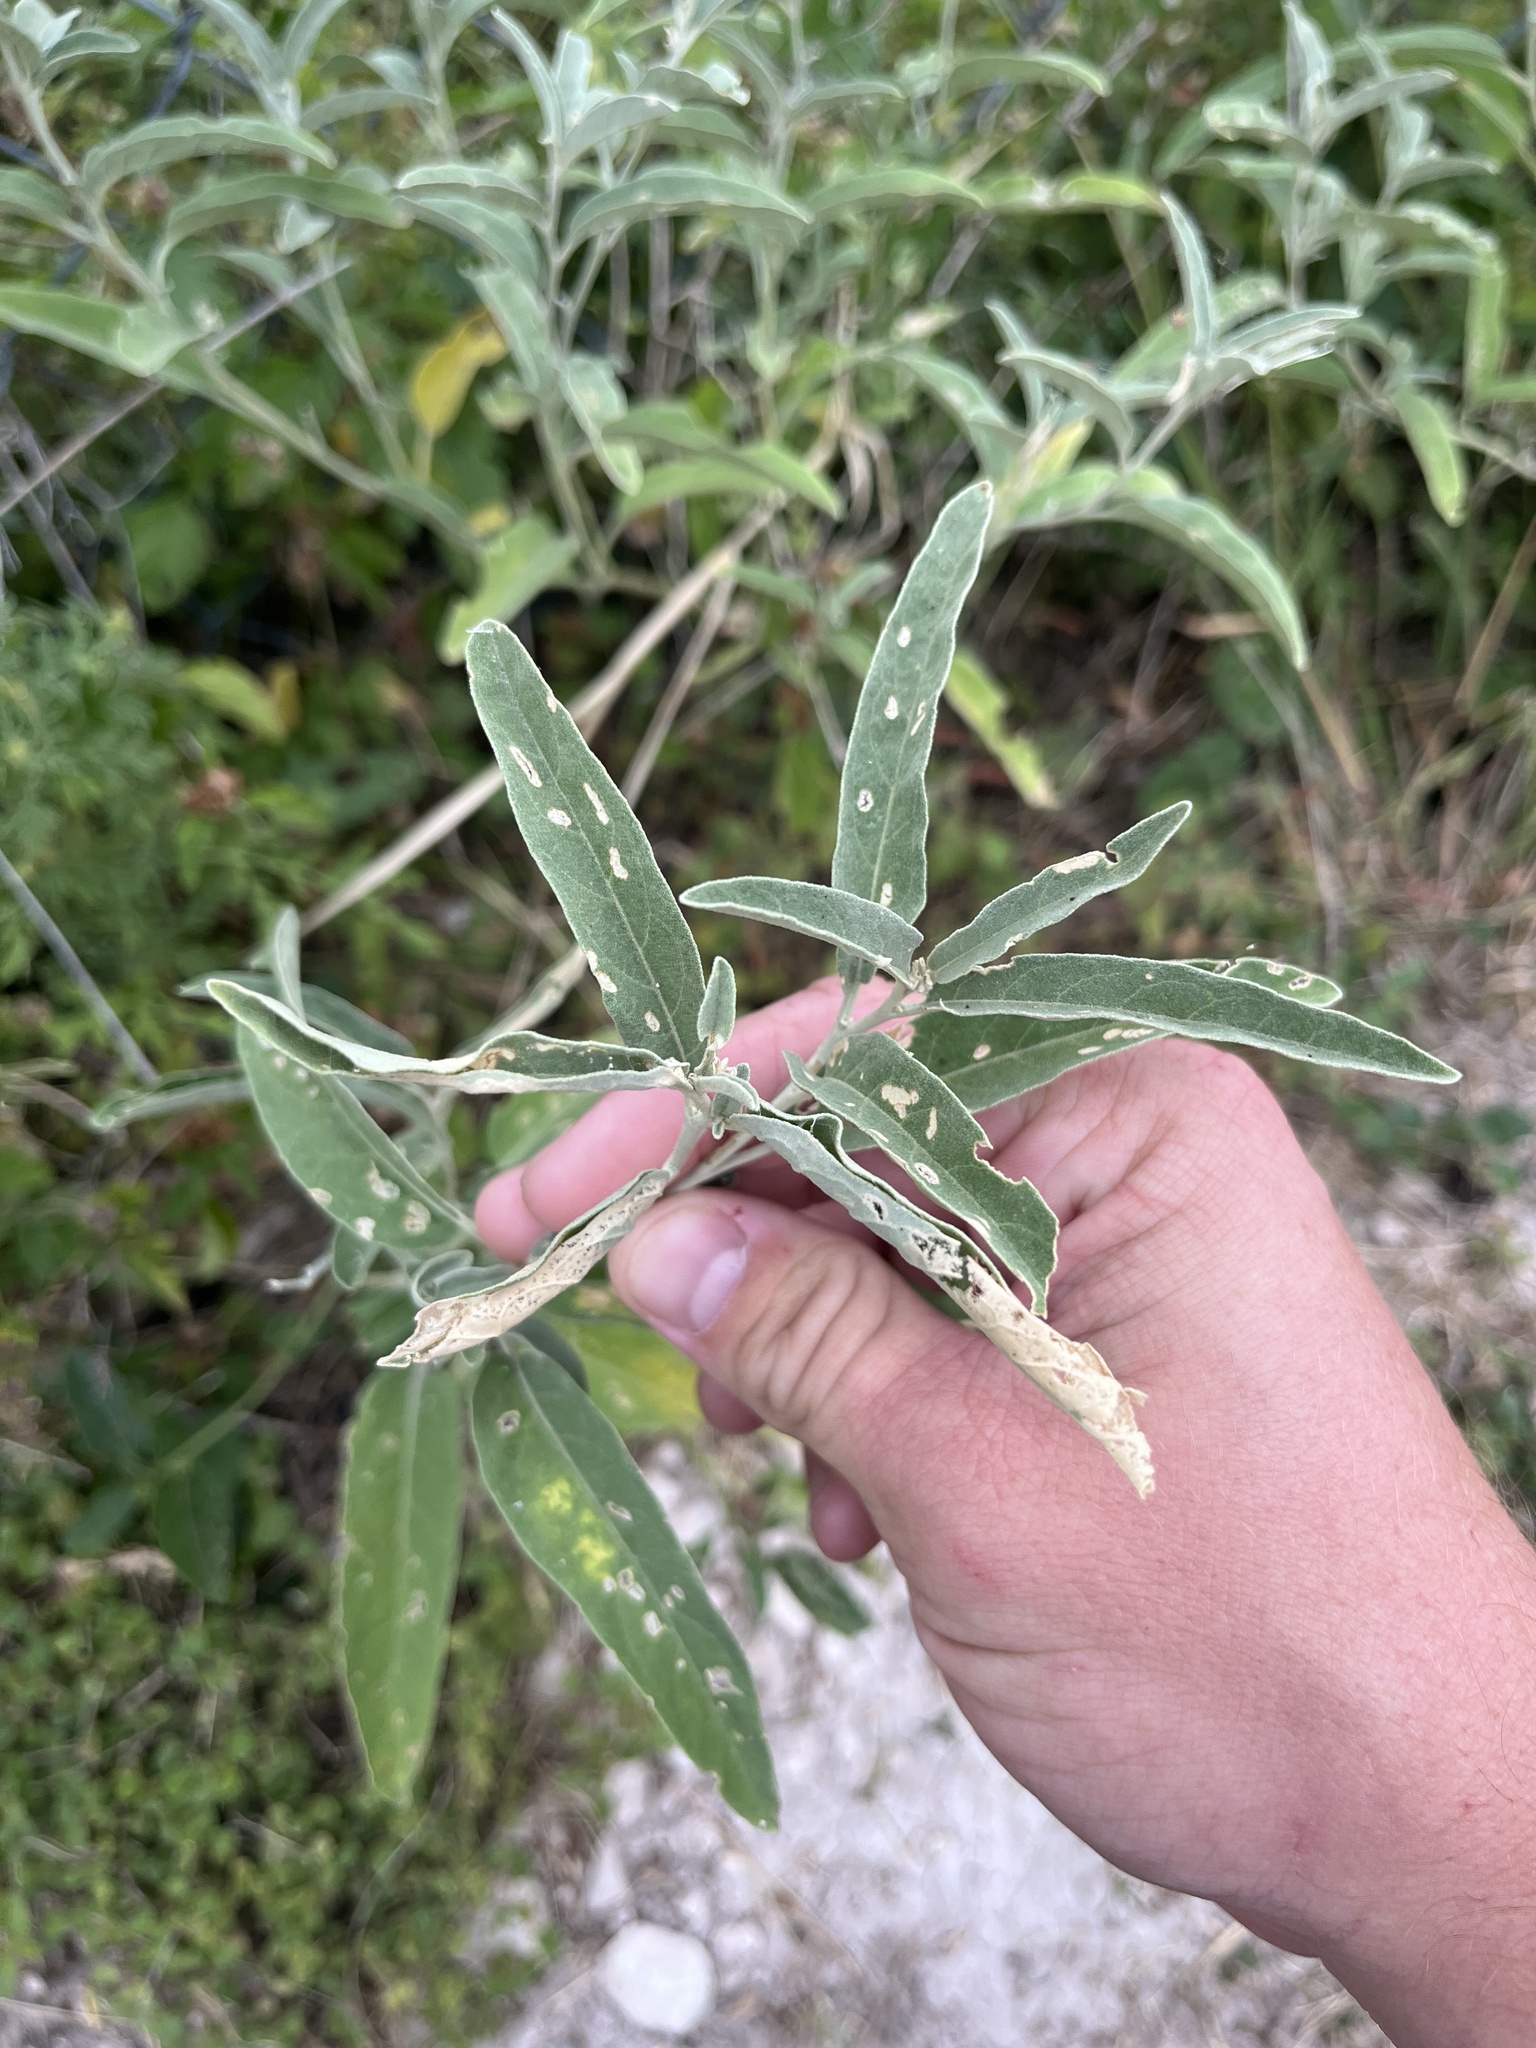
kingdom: Plantae
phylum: Tracheophyta
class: Magnoliopsida
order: Solanales
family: Solanaceae
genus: Solanum
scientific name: Solanum elaeagnifolium
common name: Silverleaf nightshade
